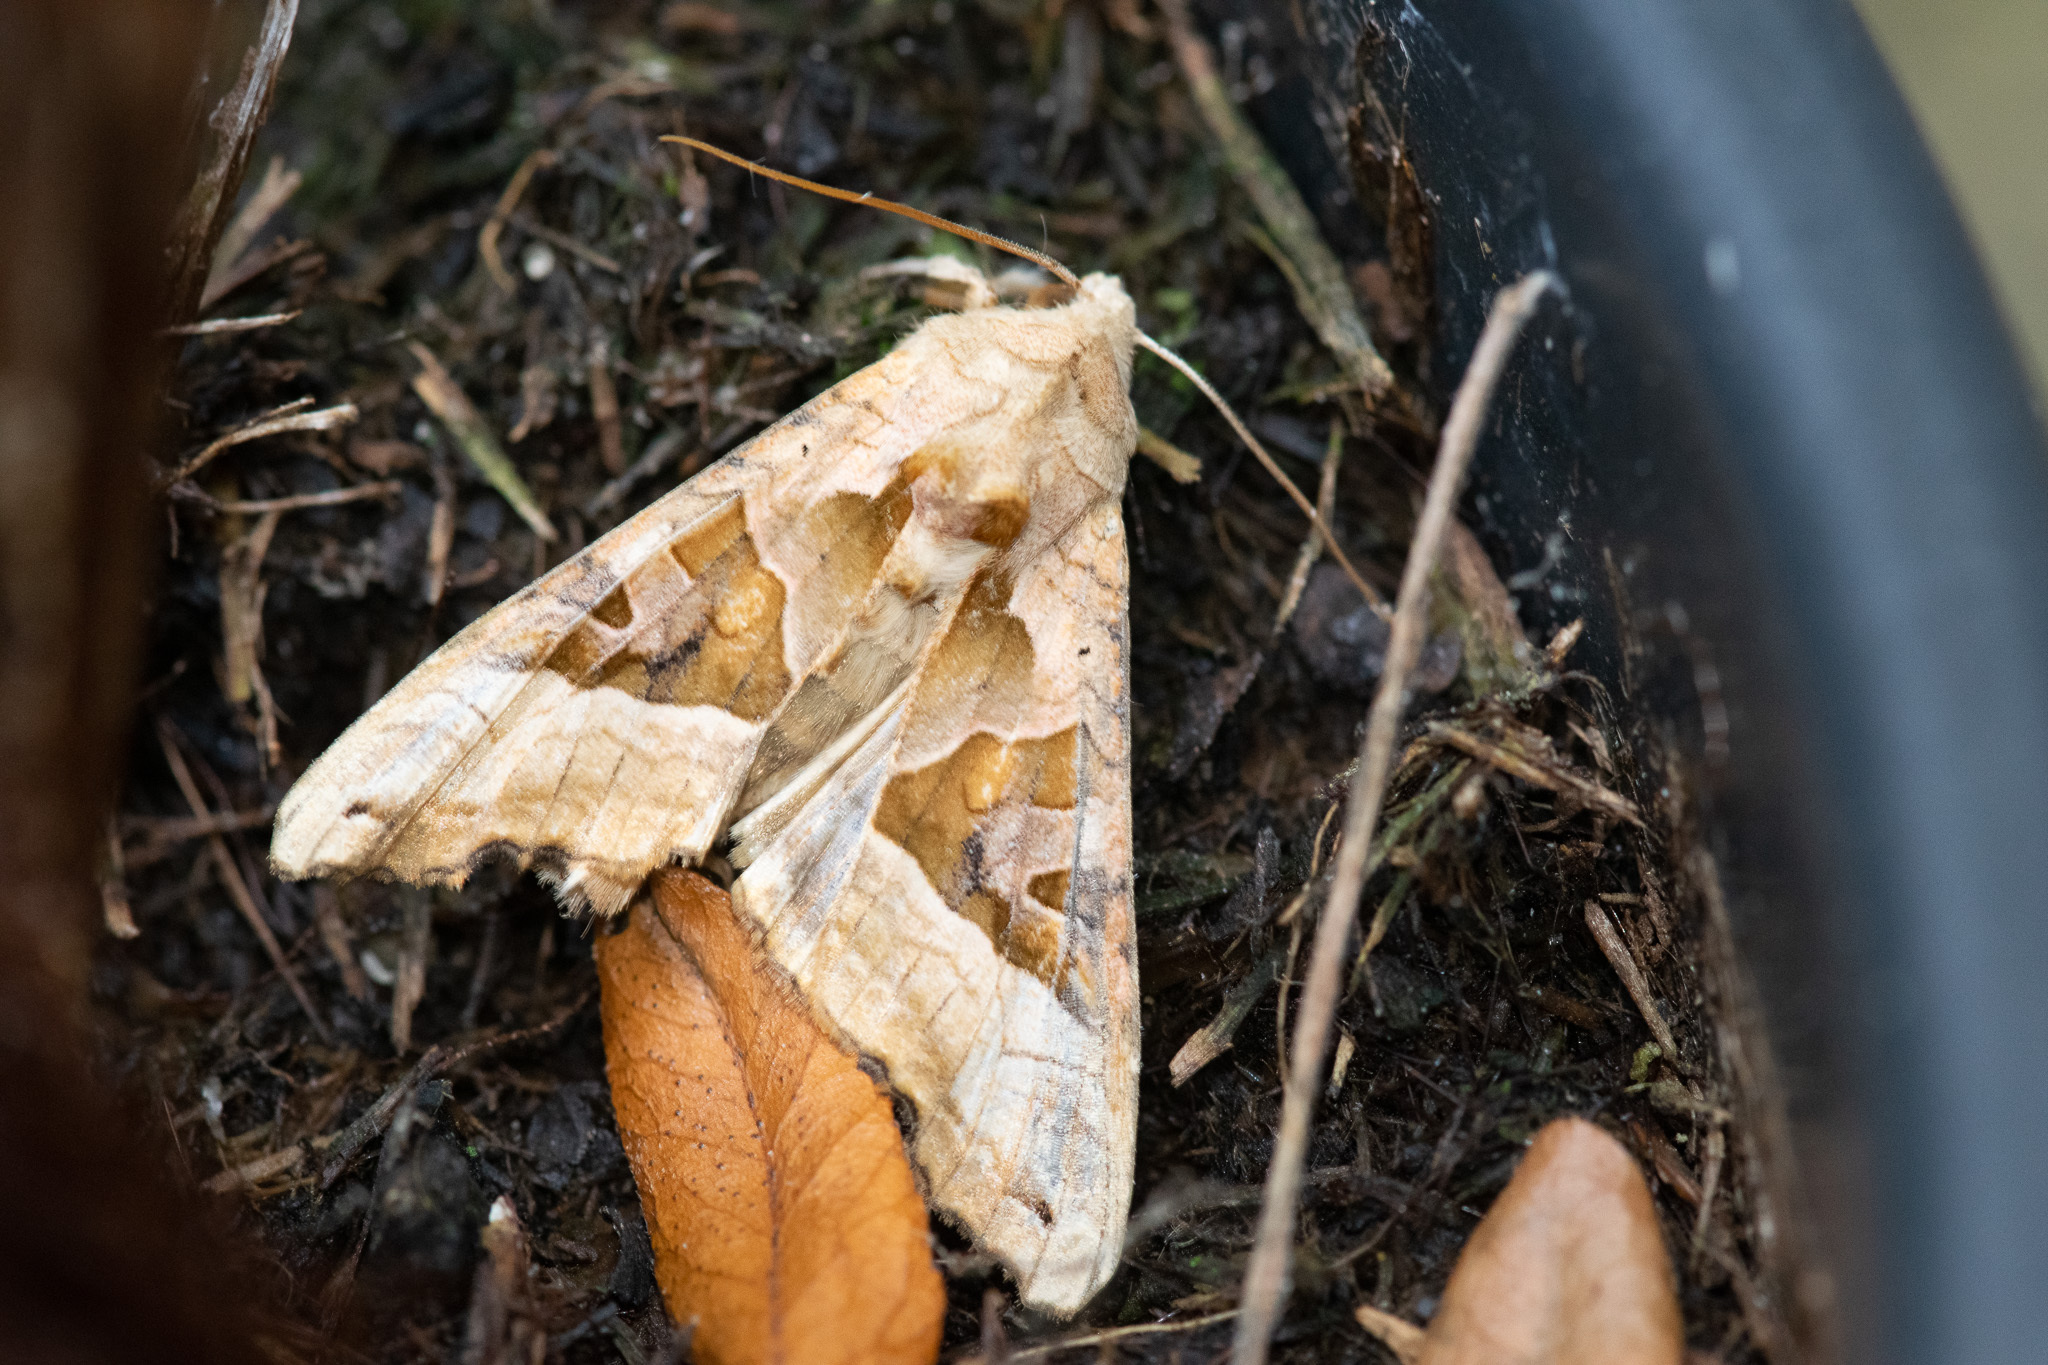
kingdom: Animalia
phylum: Arthropoda
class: Insecta
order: Lepidoptera
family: Noctuidae
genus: Phlogophora
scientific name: Phlogophora meticulosa
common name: Angle shades
